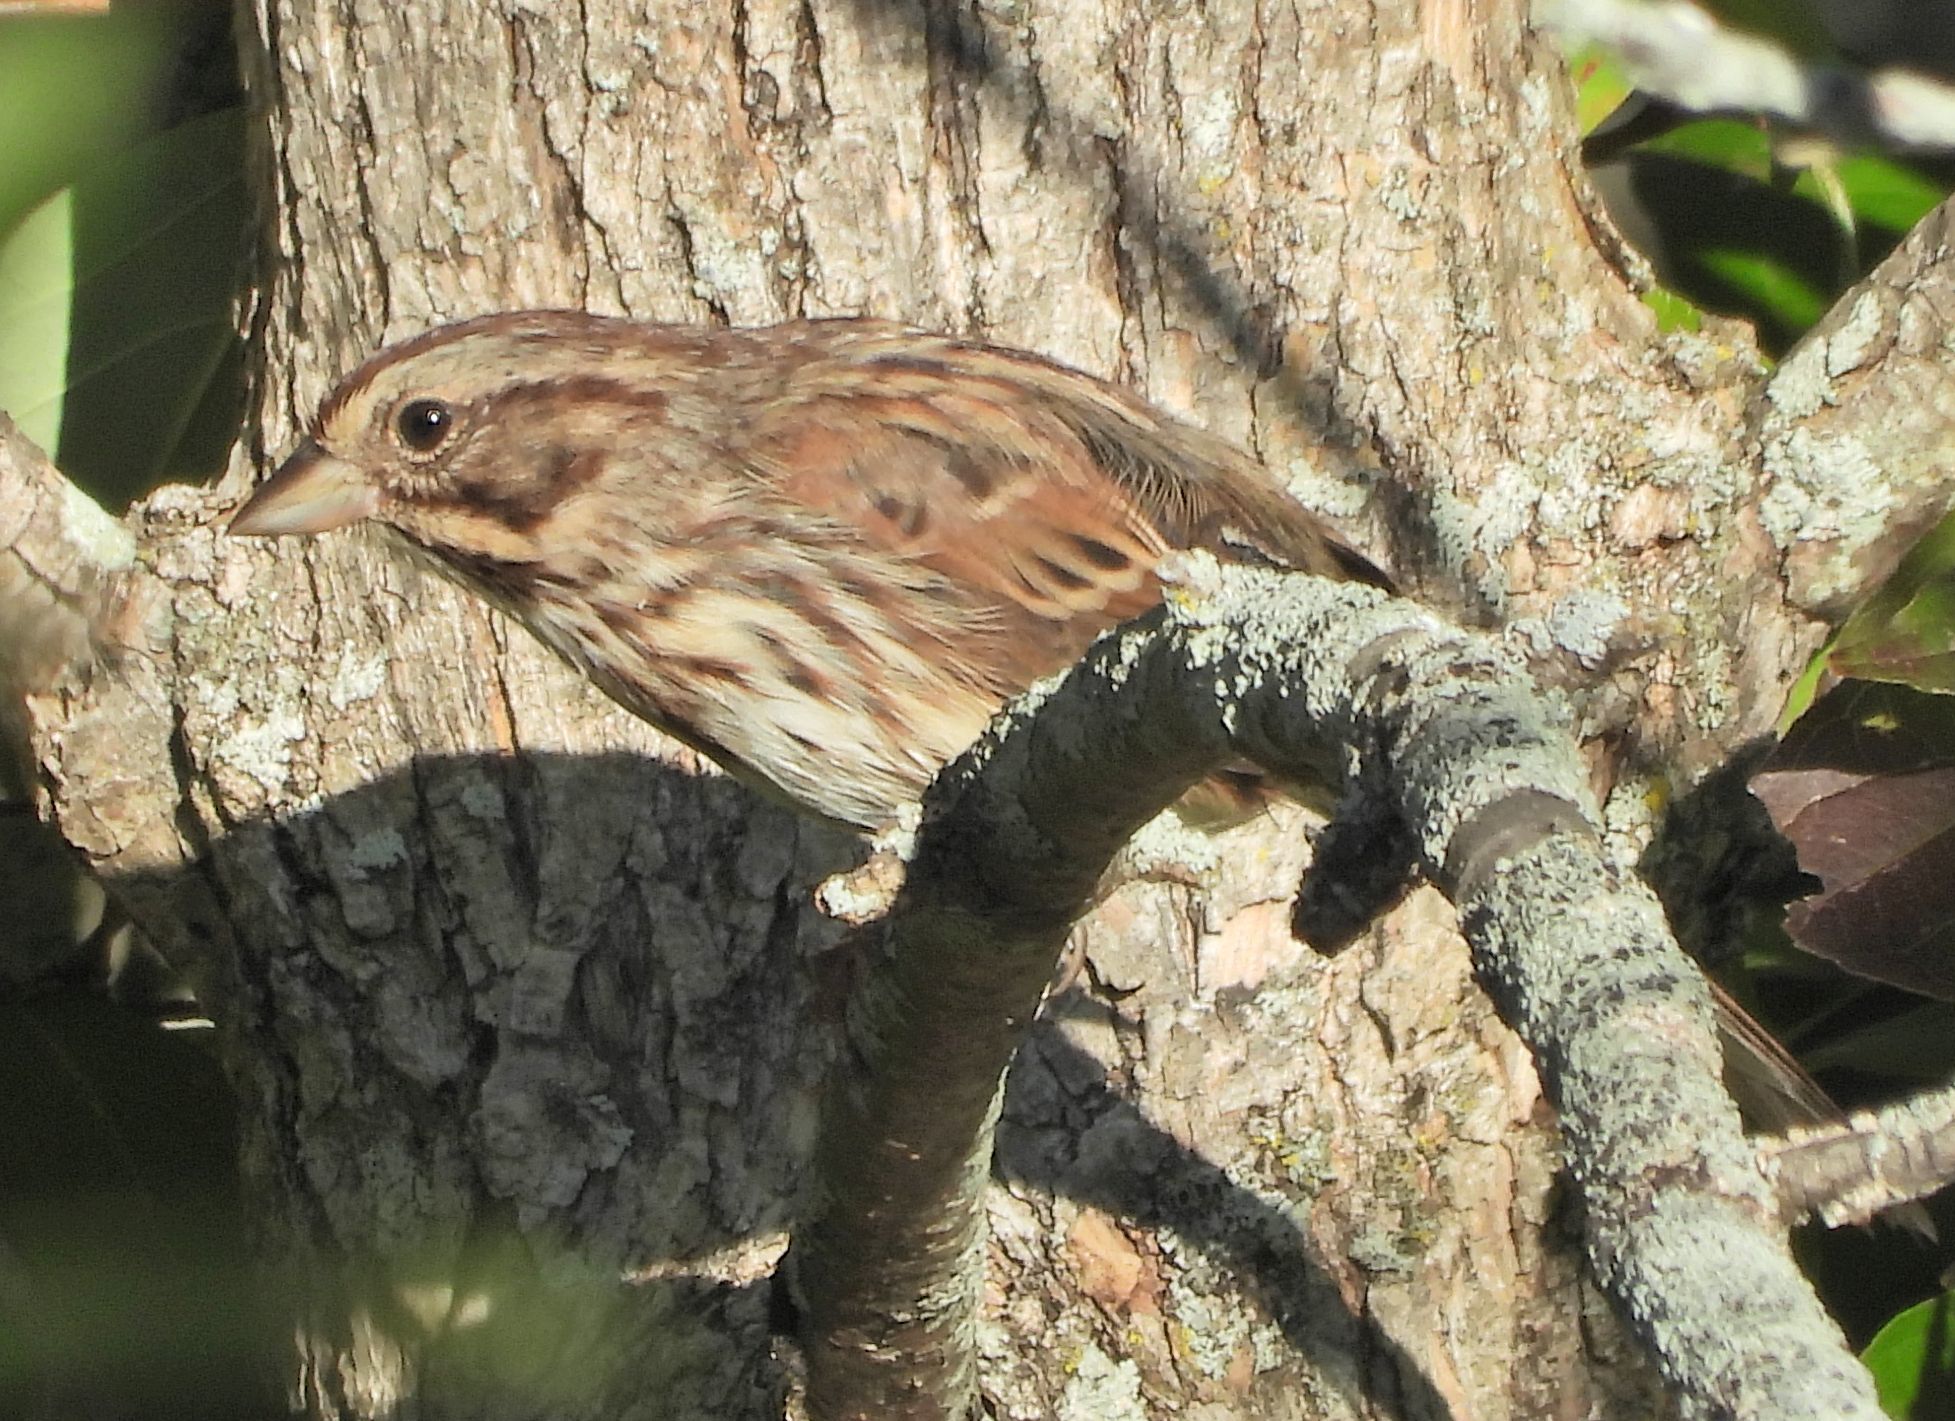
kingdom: Animalia
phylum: Chordata
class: Aves
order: Passeriformes
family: Passerellidae
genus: Melospiza
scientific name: Melospiza melodia
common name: Song sparrow
